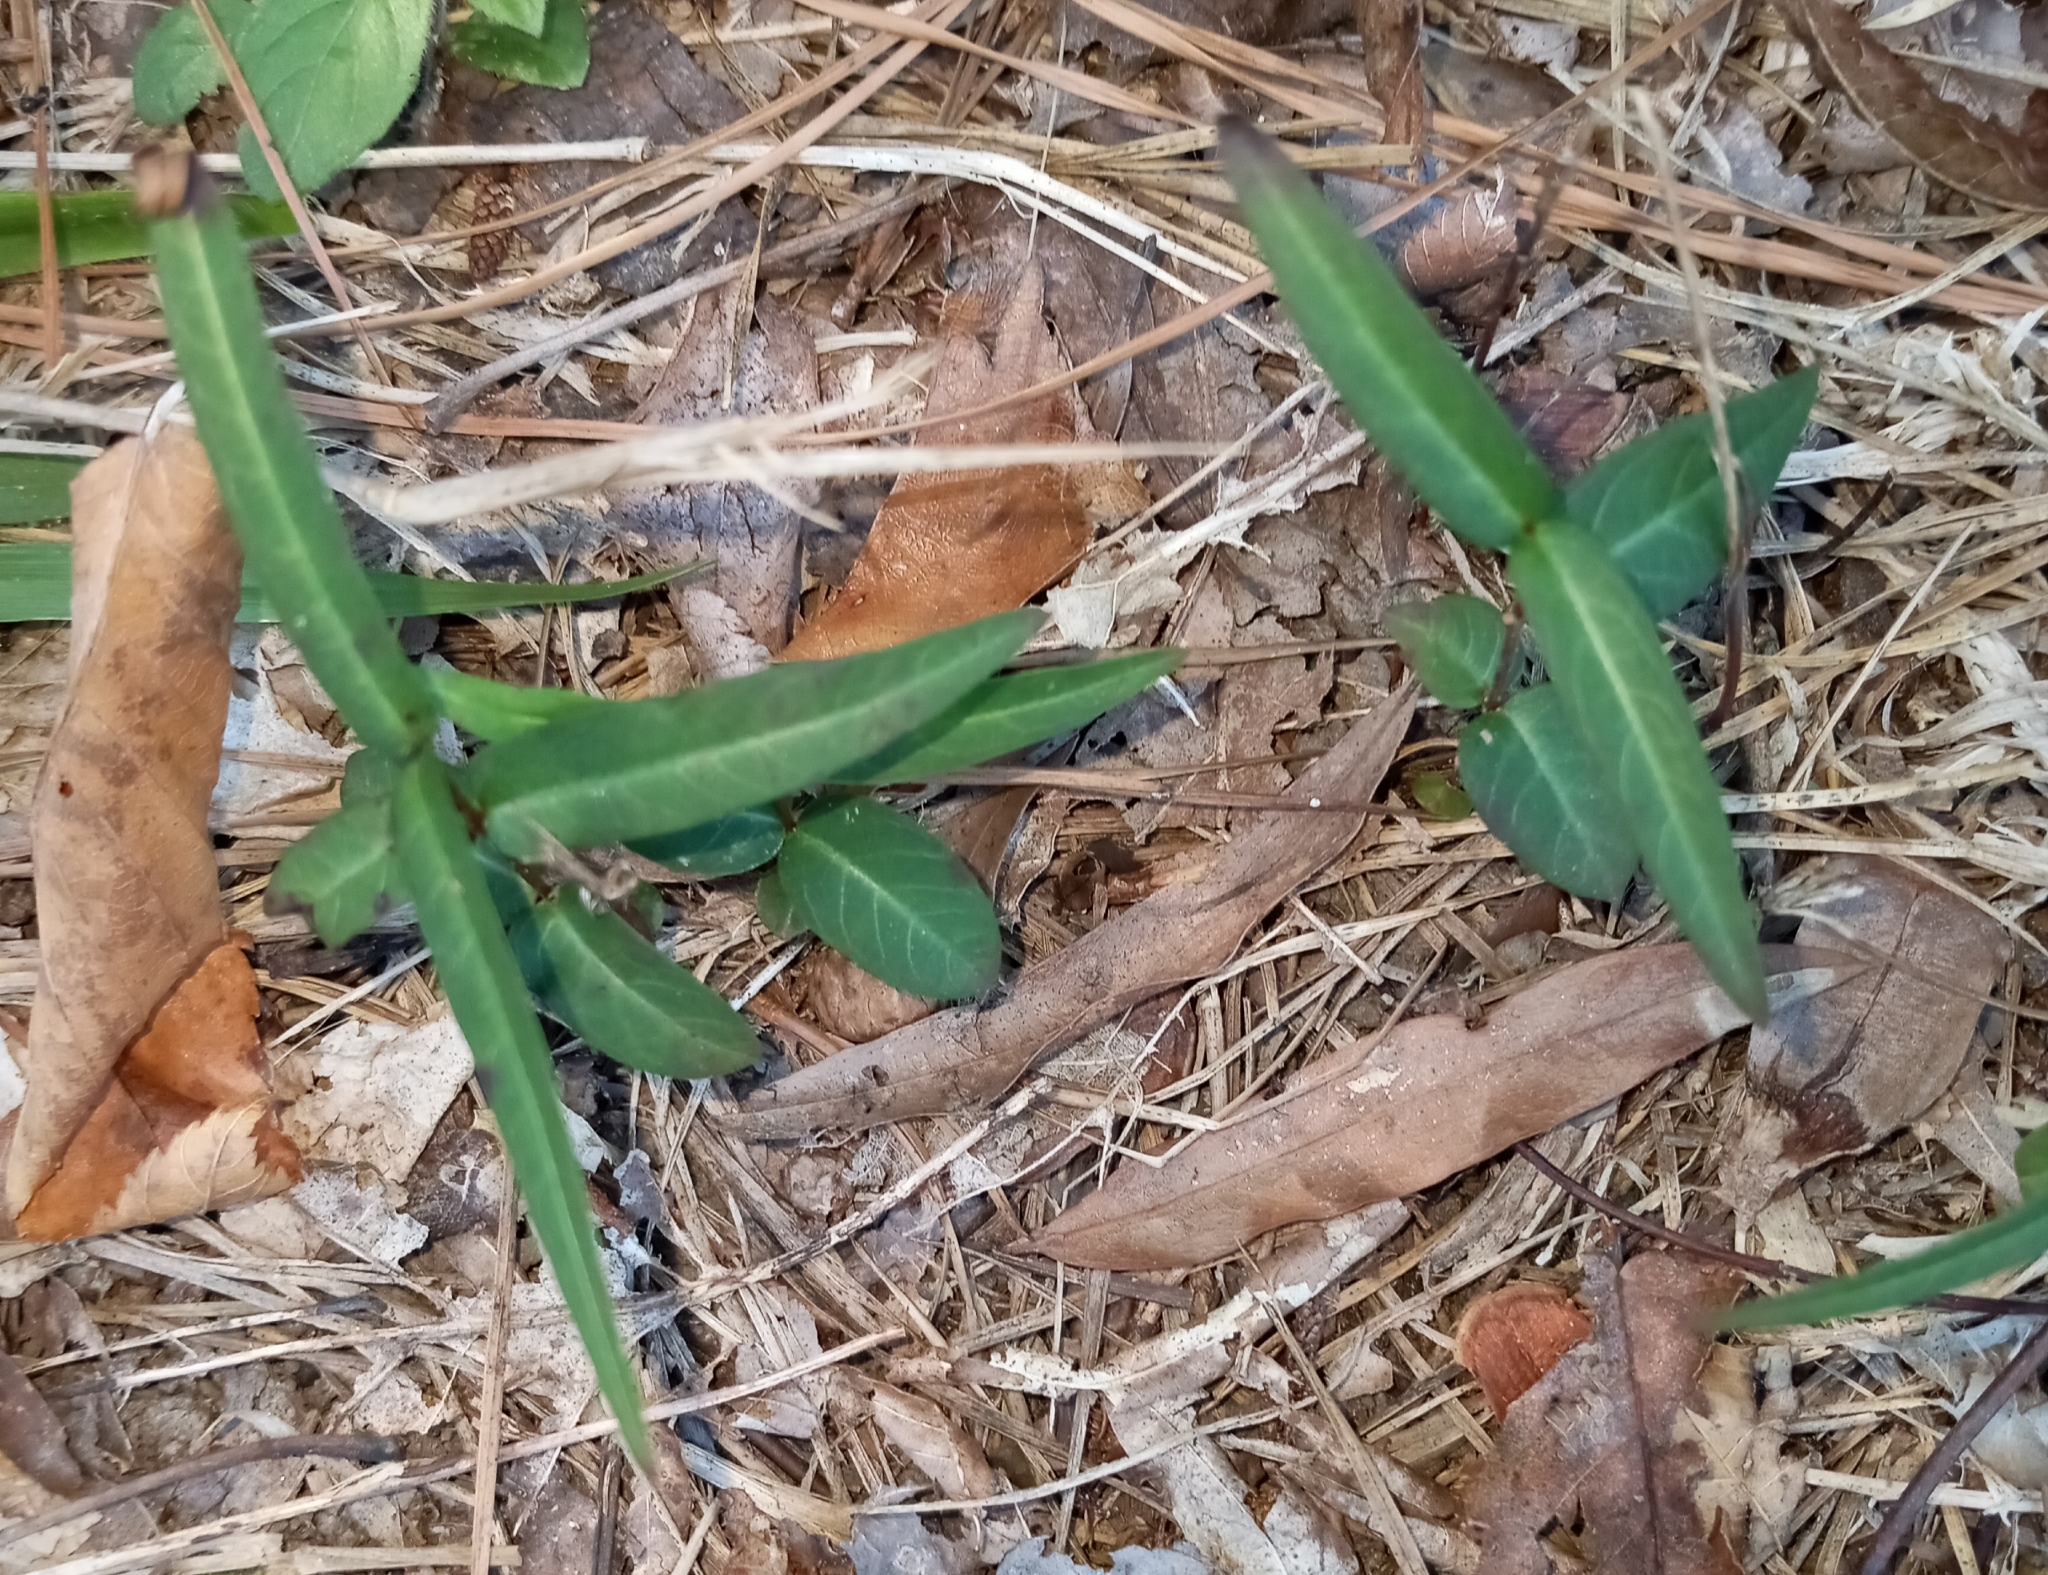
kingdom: Plantae
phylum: Tracheophyta
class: Magnoliopsida
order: Gentianales
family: Apocynaceae
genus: Thyrsanthella
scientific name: Thyrsanthella difformis
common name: Climbing dogbane
